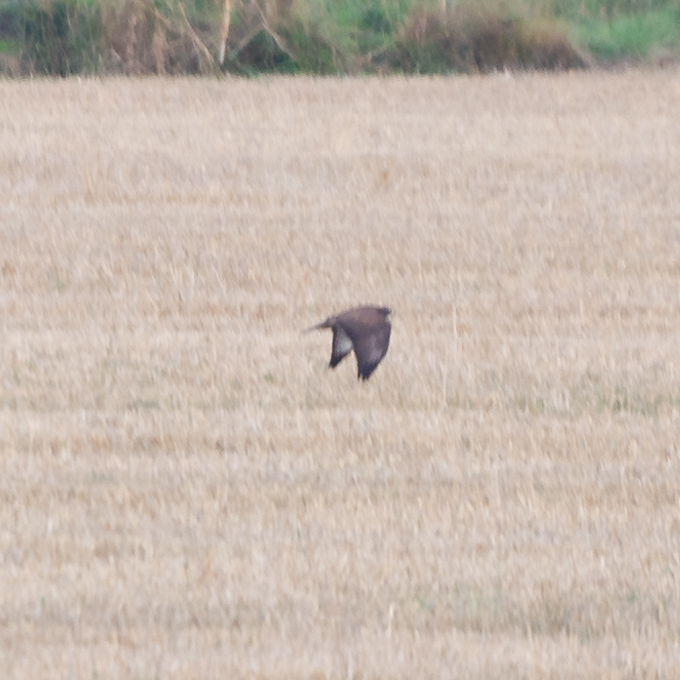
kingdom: Animalia
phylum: Chordata
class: Aves
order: Accipitriformes
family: Accipitridae
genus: Buteo
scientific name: Buteo buteo
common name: Common buzzard
